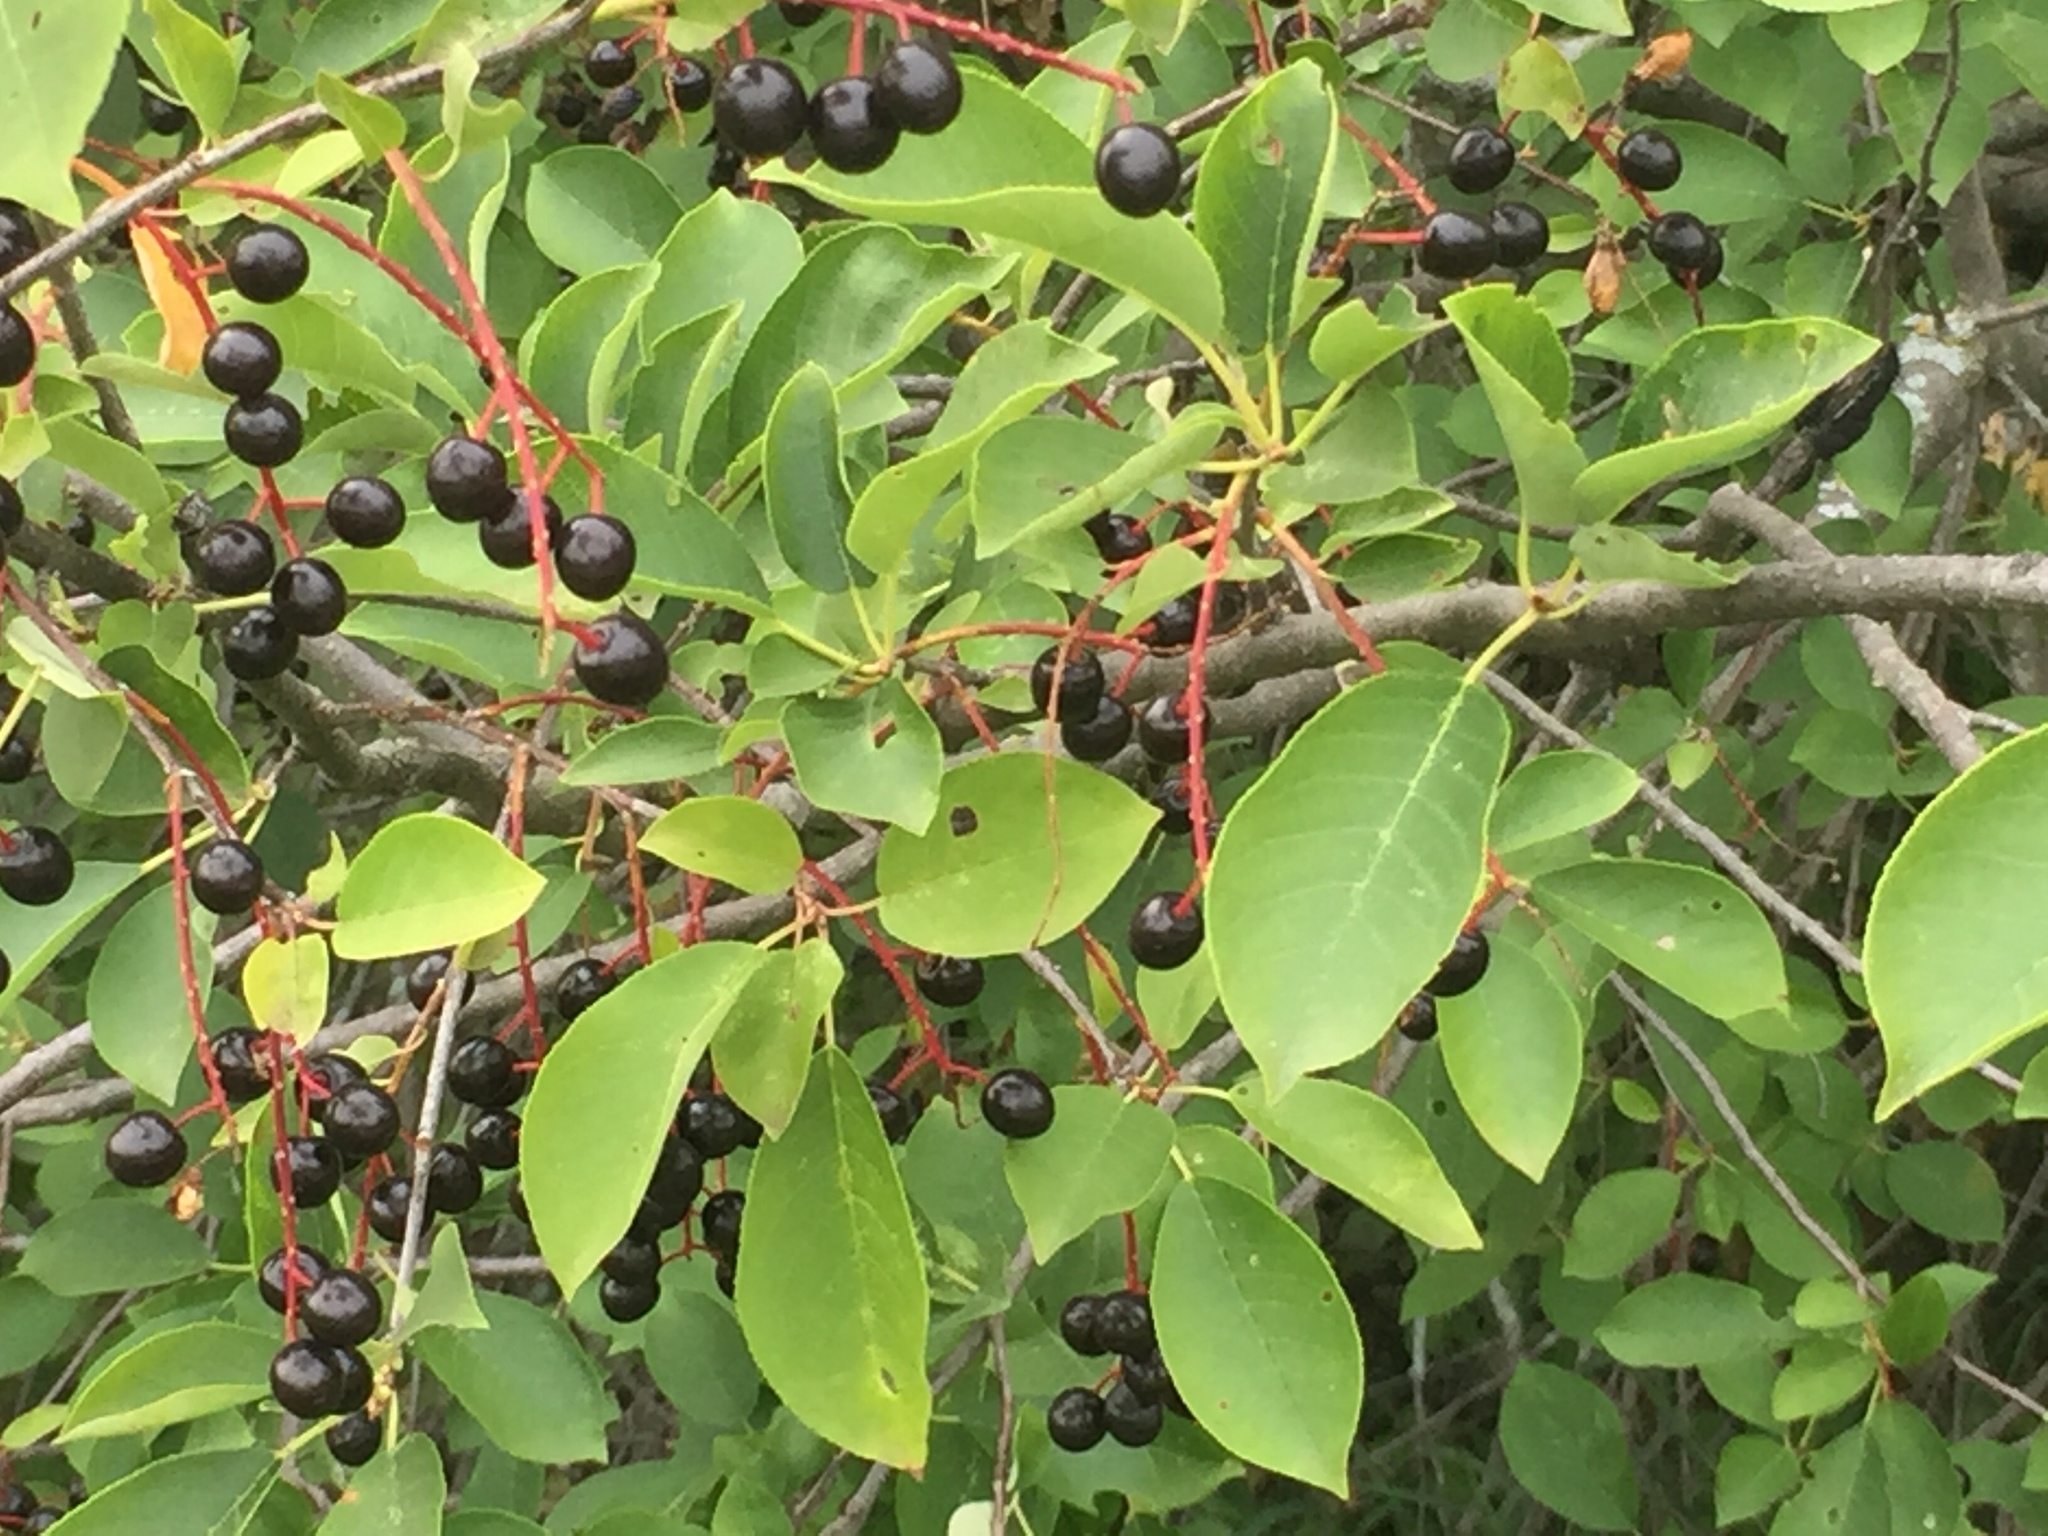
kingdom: Plantae
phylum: Tracheophyta
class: Magnoliopsida
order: Rosales
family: Rosaceae
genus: Prunus
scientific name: Prunus virginiana
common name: Chokecherry
